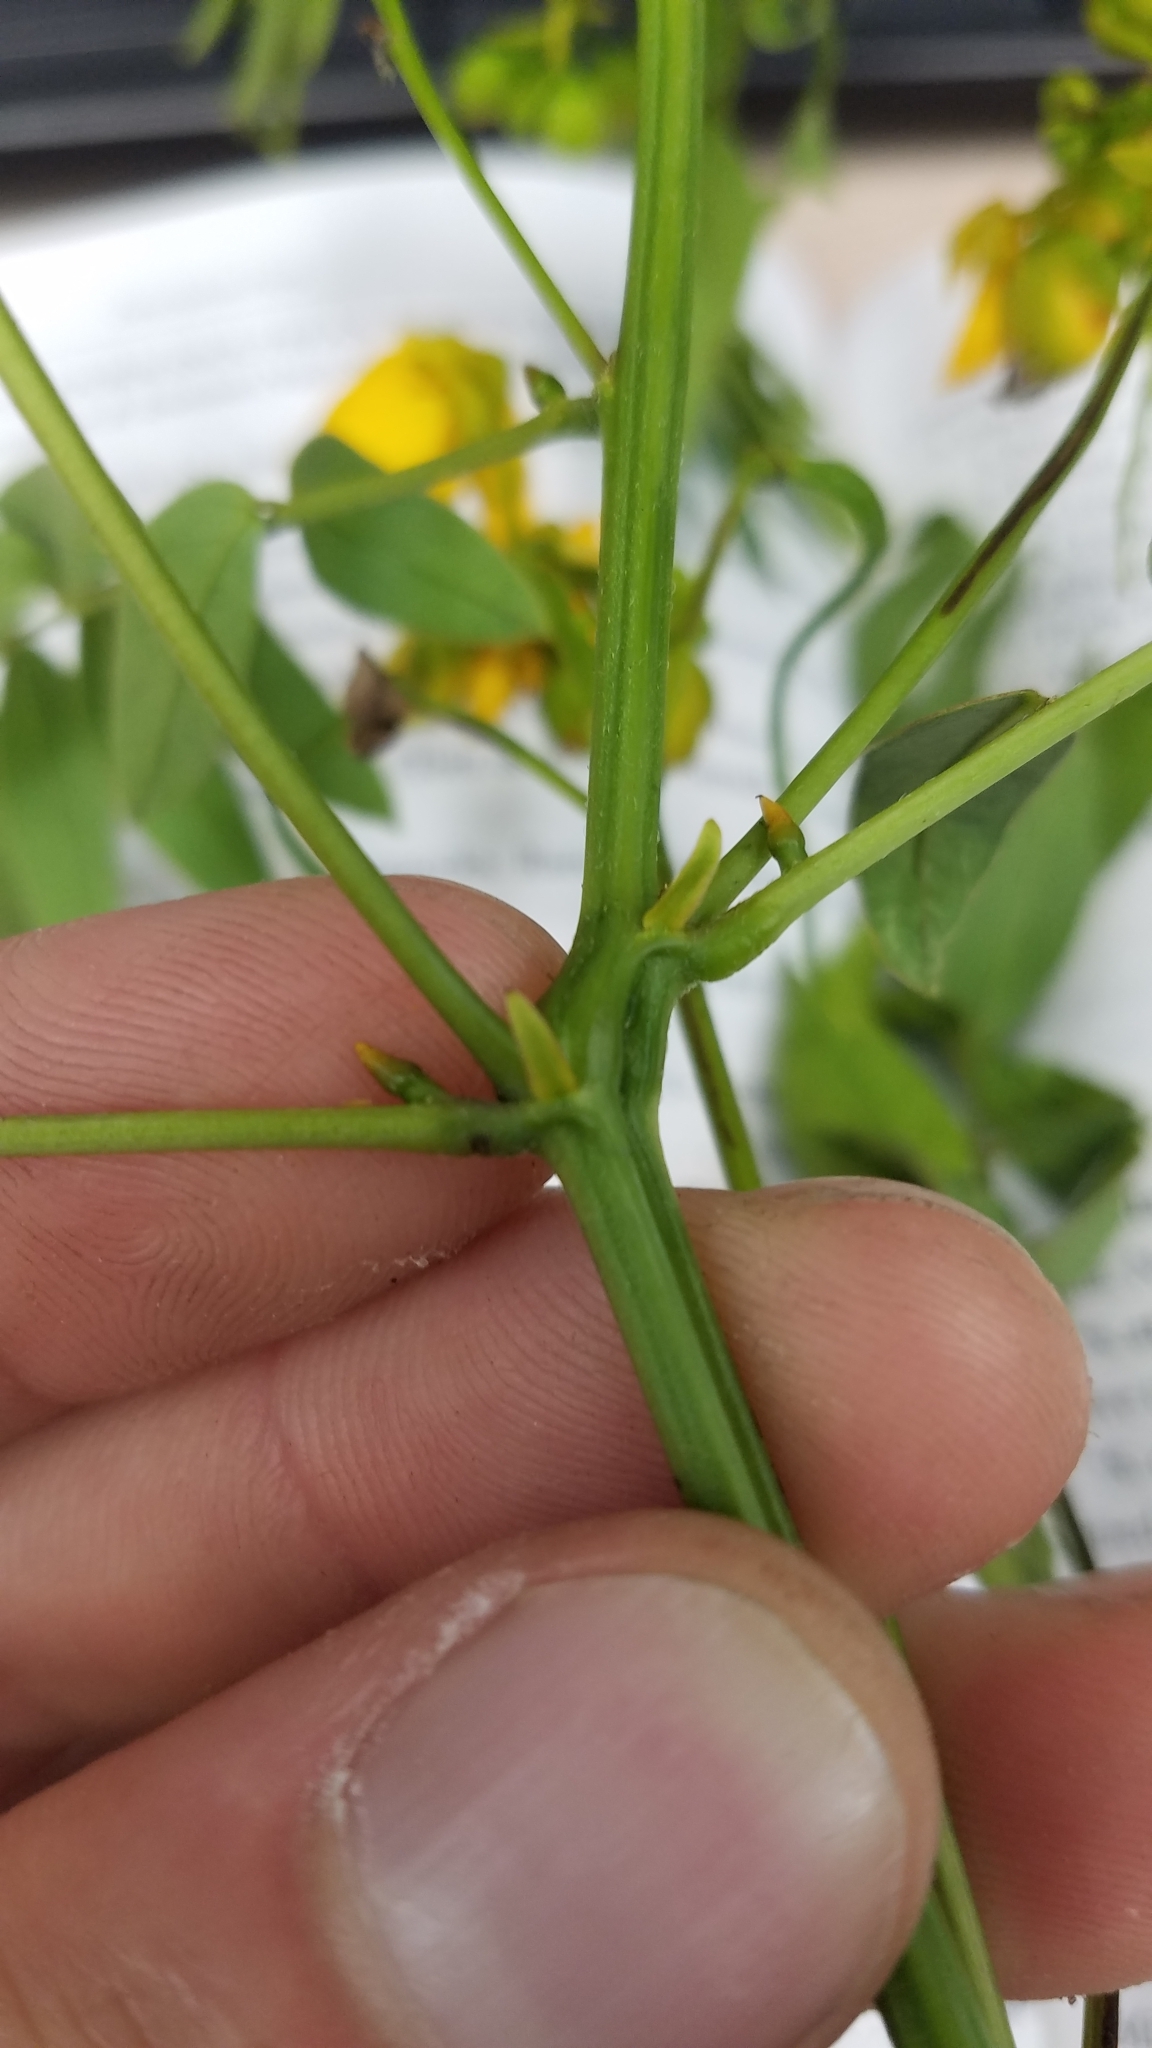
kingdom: Plantae
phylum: Tracheophyta
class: Magnoliopsida
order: Fabales
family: Fabaceae
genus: Senna
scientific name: Senna ligustrina
